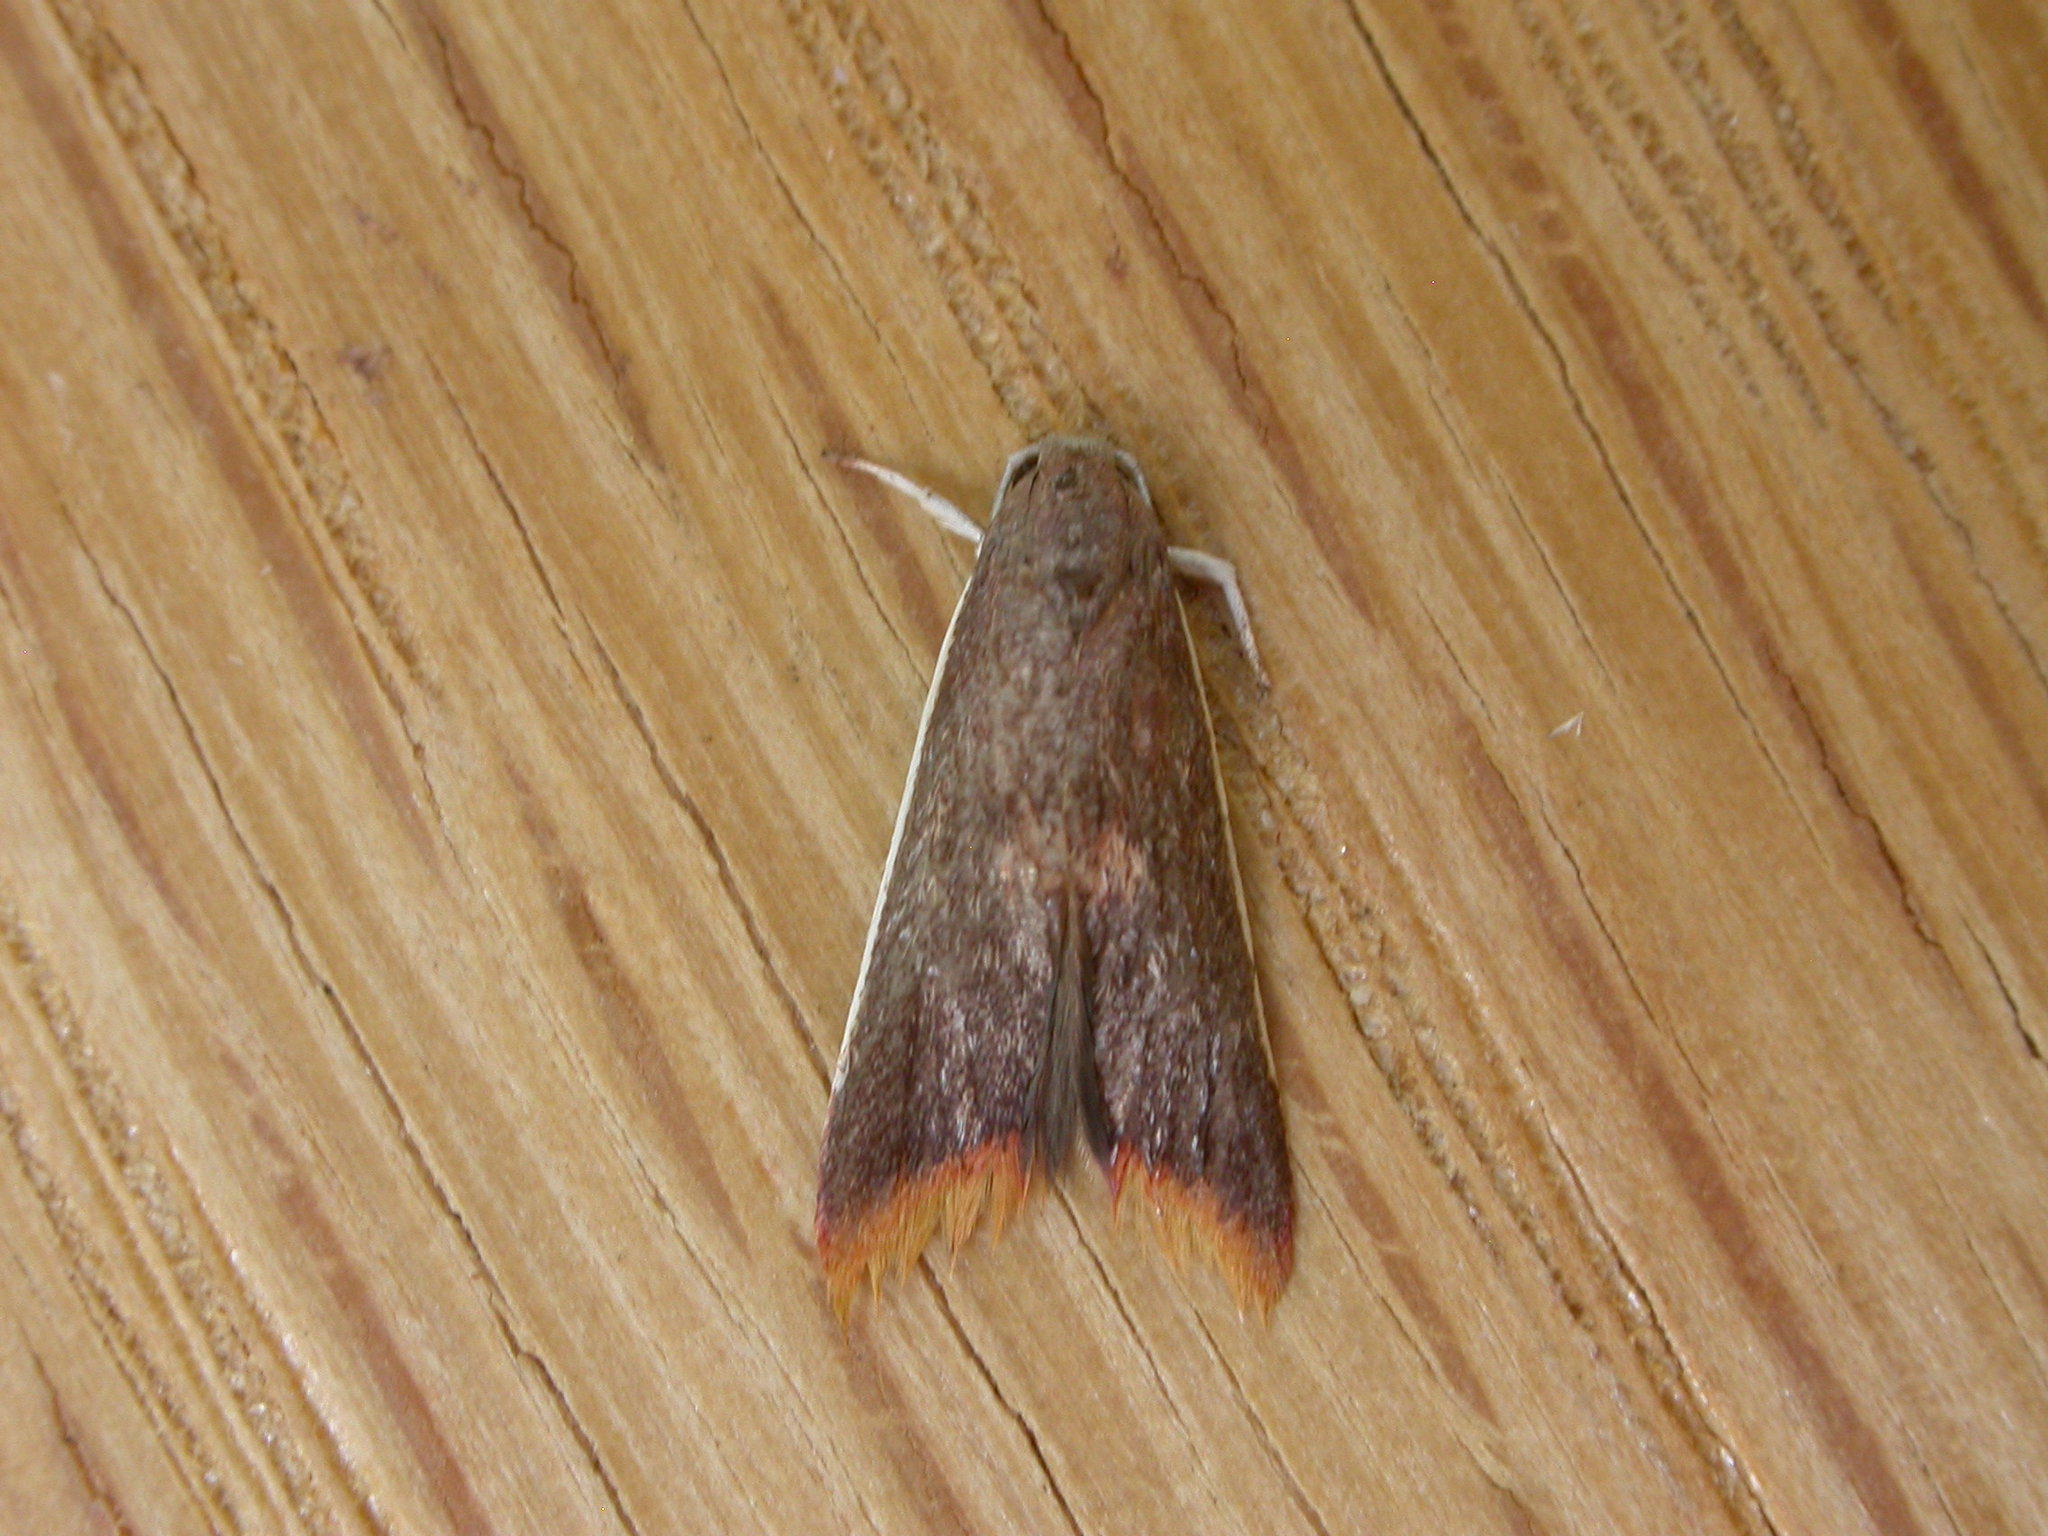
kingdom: Animalia
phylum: Arthropoda
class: Insecta
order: Lepidoptera
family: Oecophoridae
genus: Hemibela
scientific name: Hemibela callista
